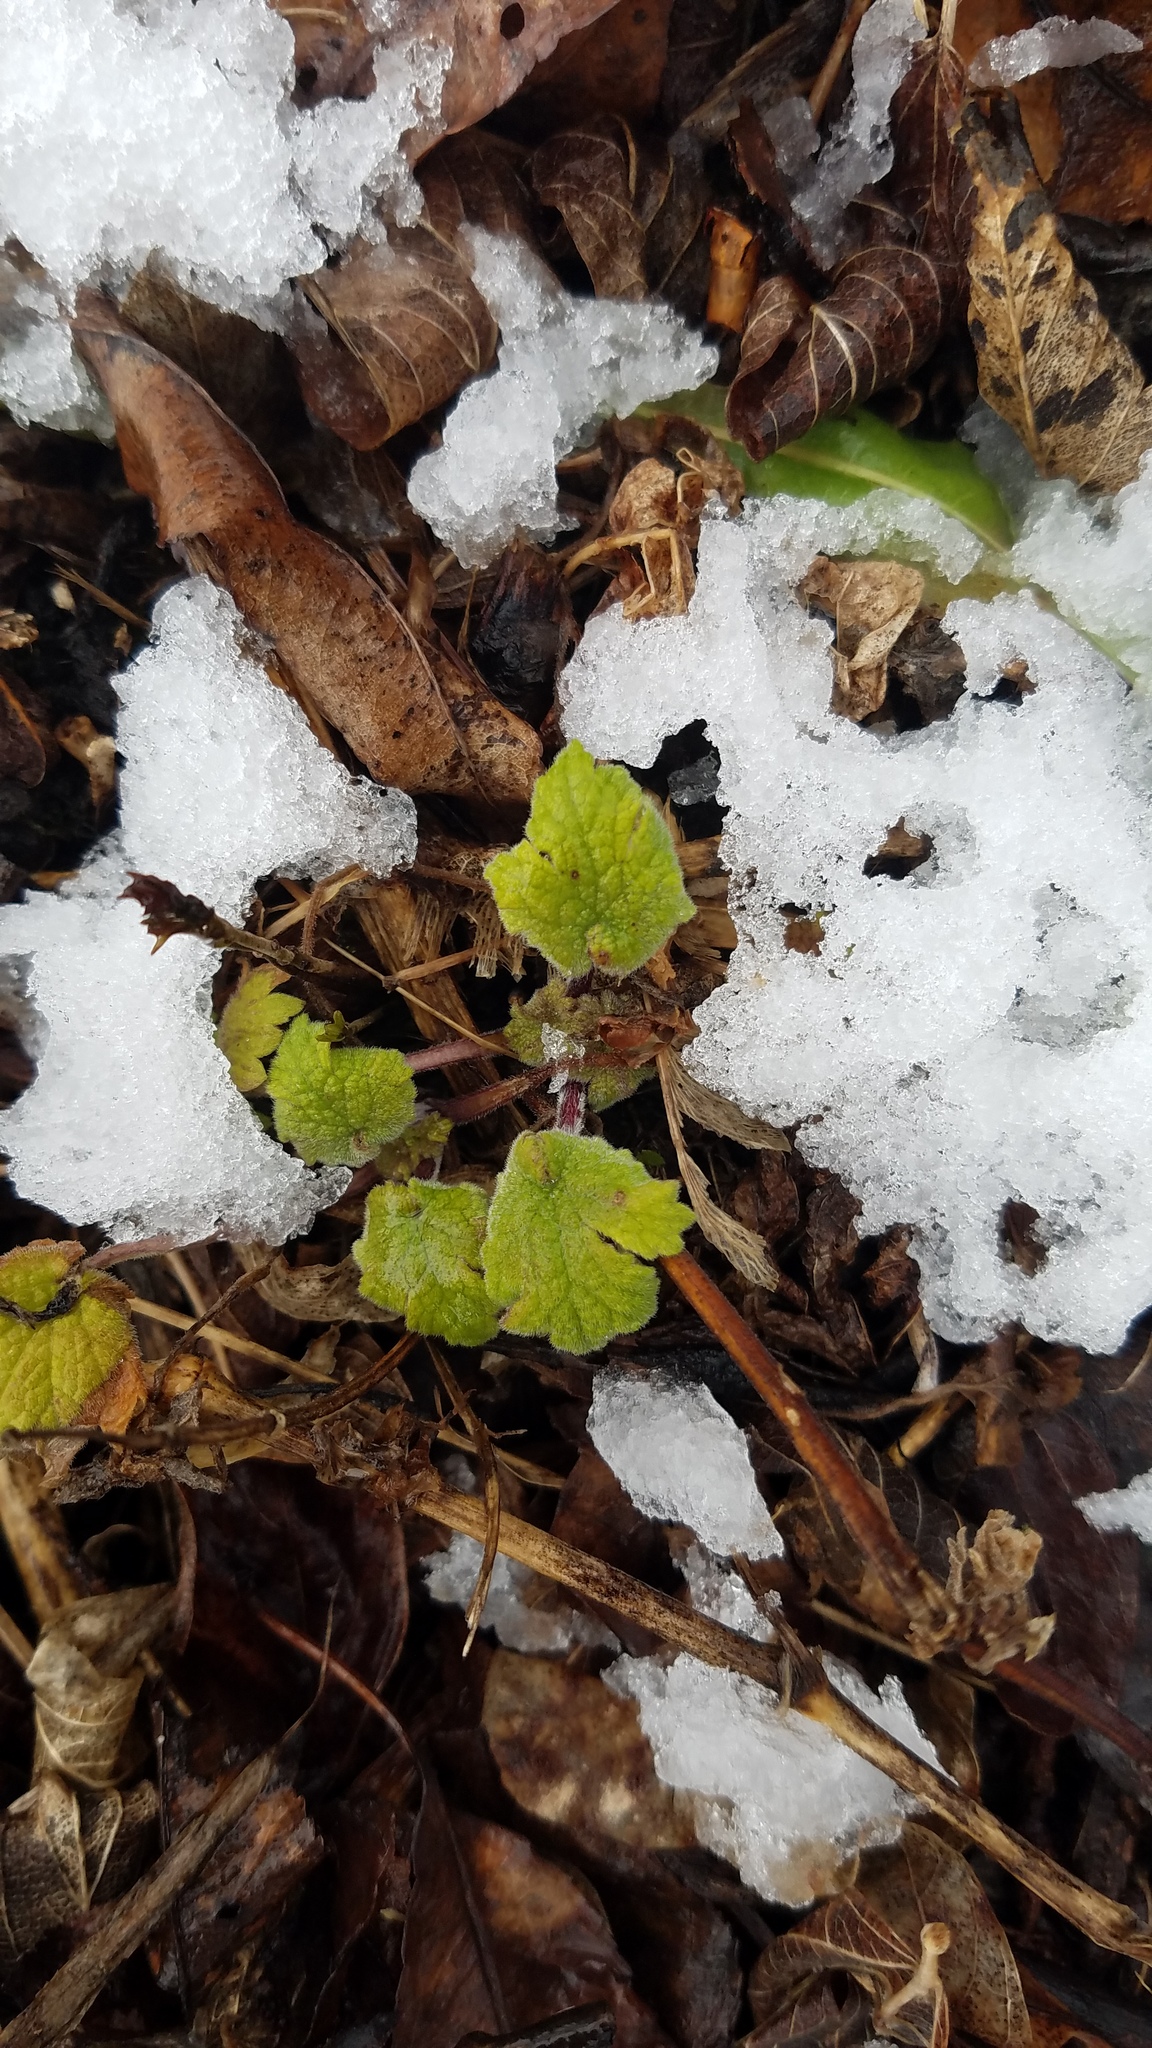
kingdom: Plantae
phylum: Tracheophyta
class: Magnoliopsida
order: Lamiales
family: Lamiaceae
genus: Leonurus
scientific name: Leonurus cardiaca
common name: Motherwort
